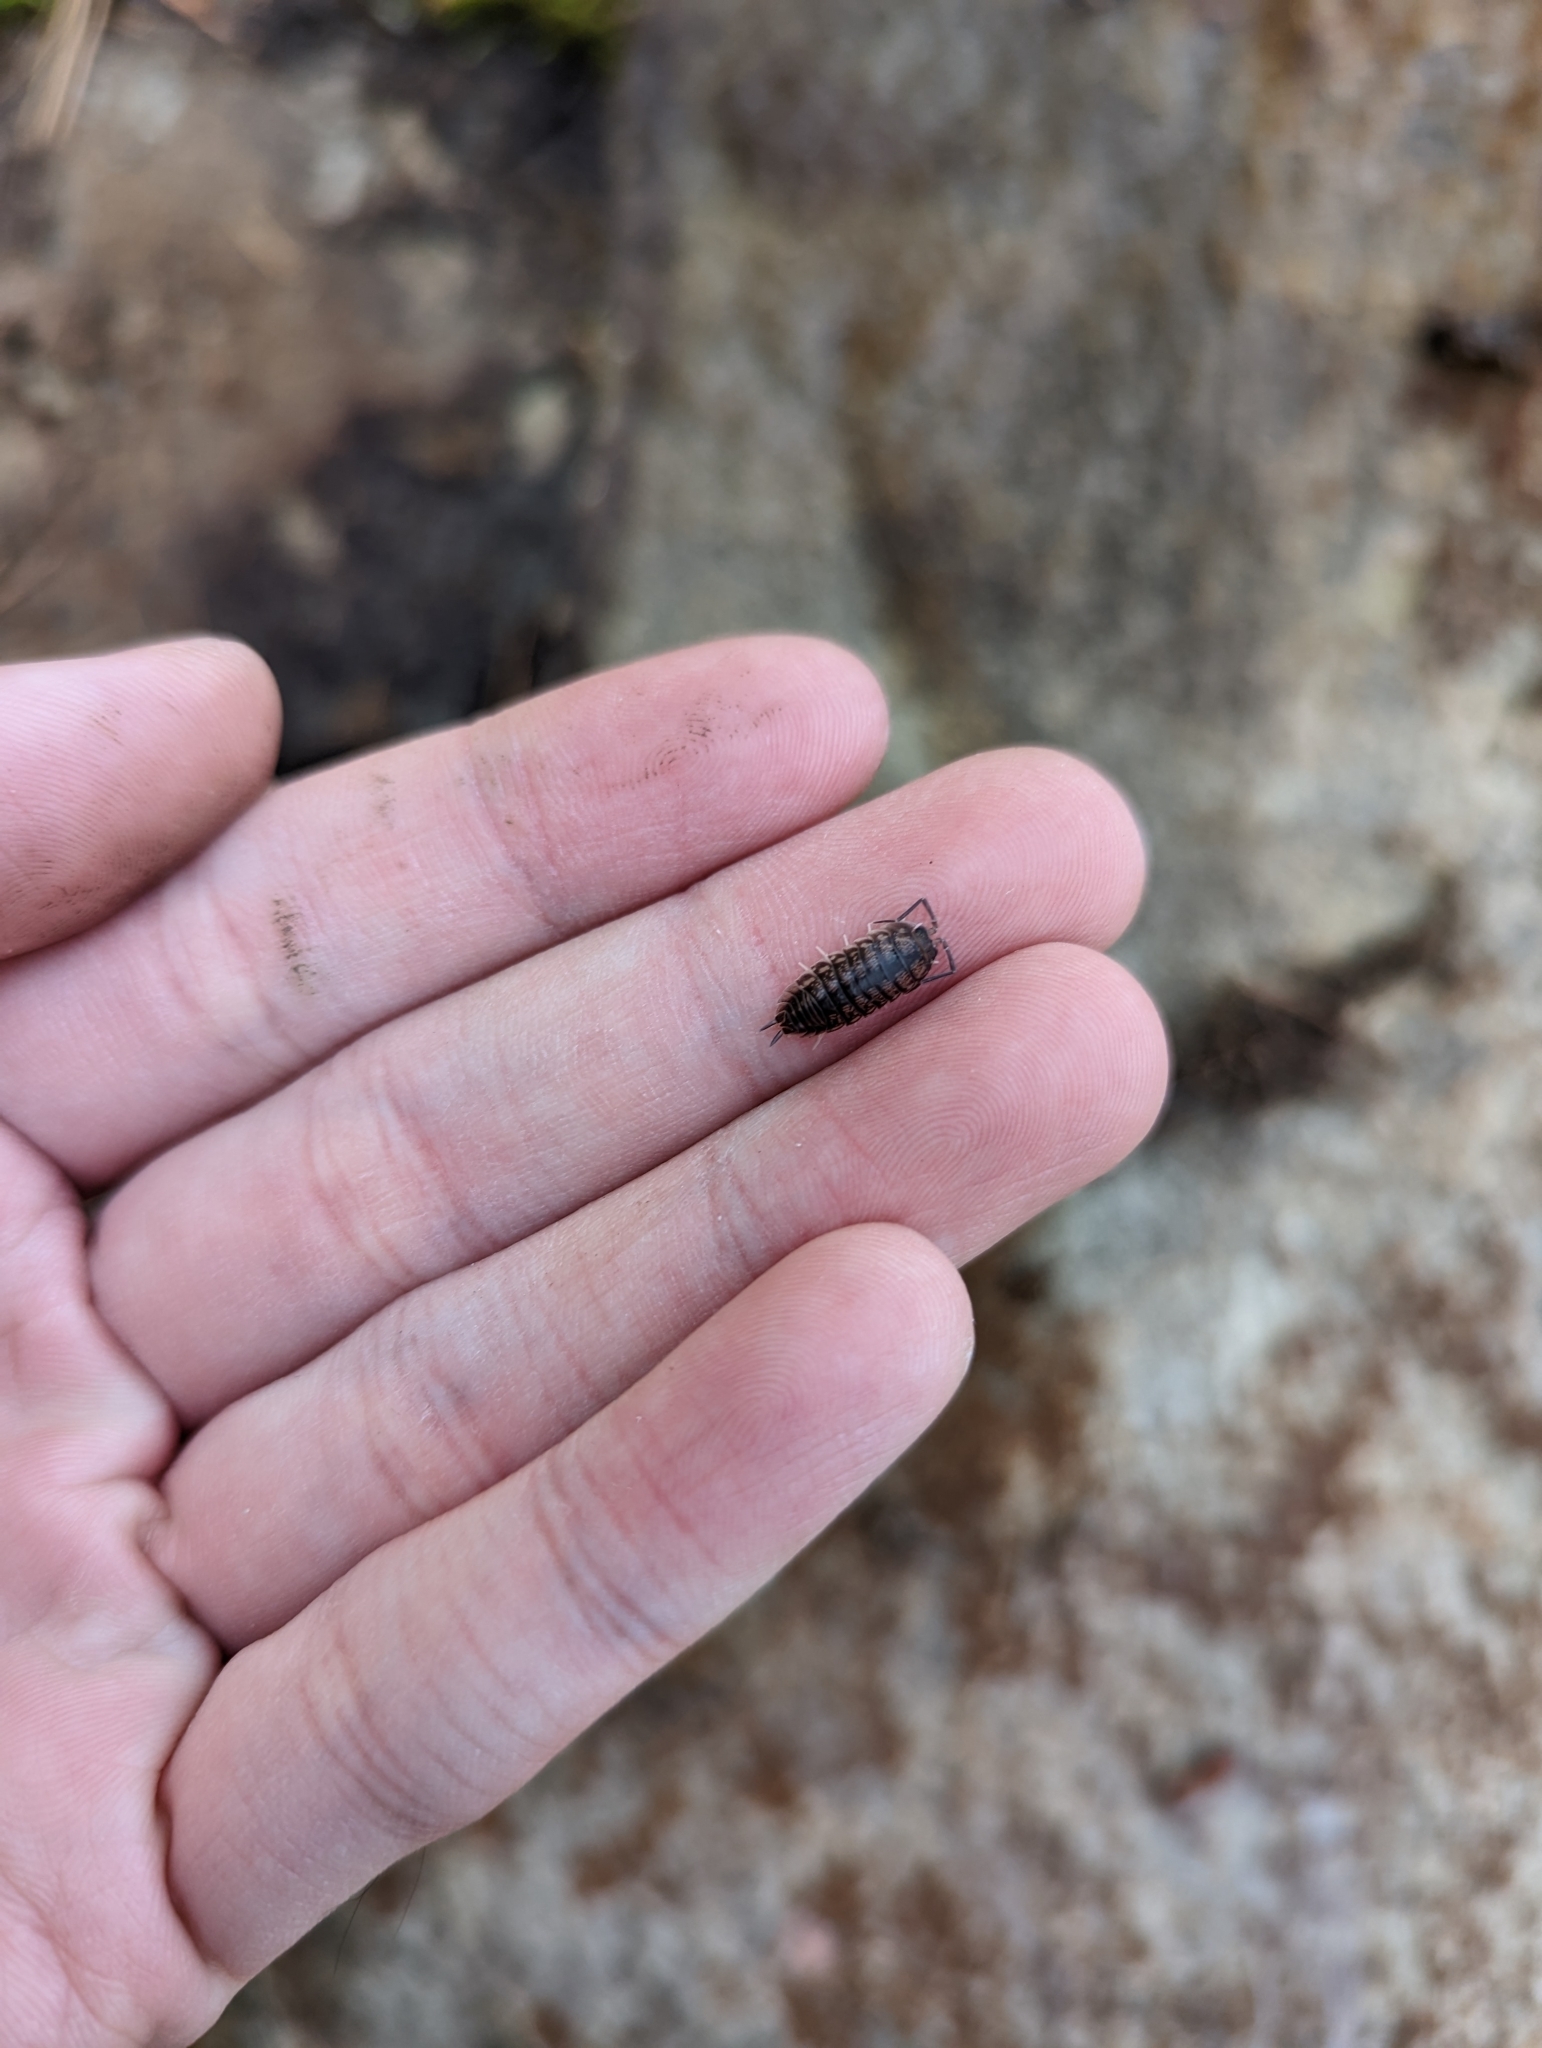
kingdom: Animalia
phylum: Arthropoda
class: Malacostraca
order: Isopoda
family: Cylisticidae
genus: Cylisticus
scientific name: Cylisticus convexus
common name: Curly woodlouse
